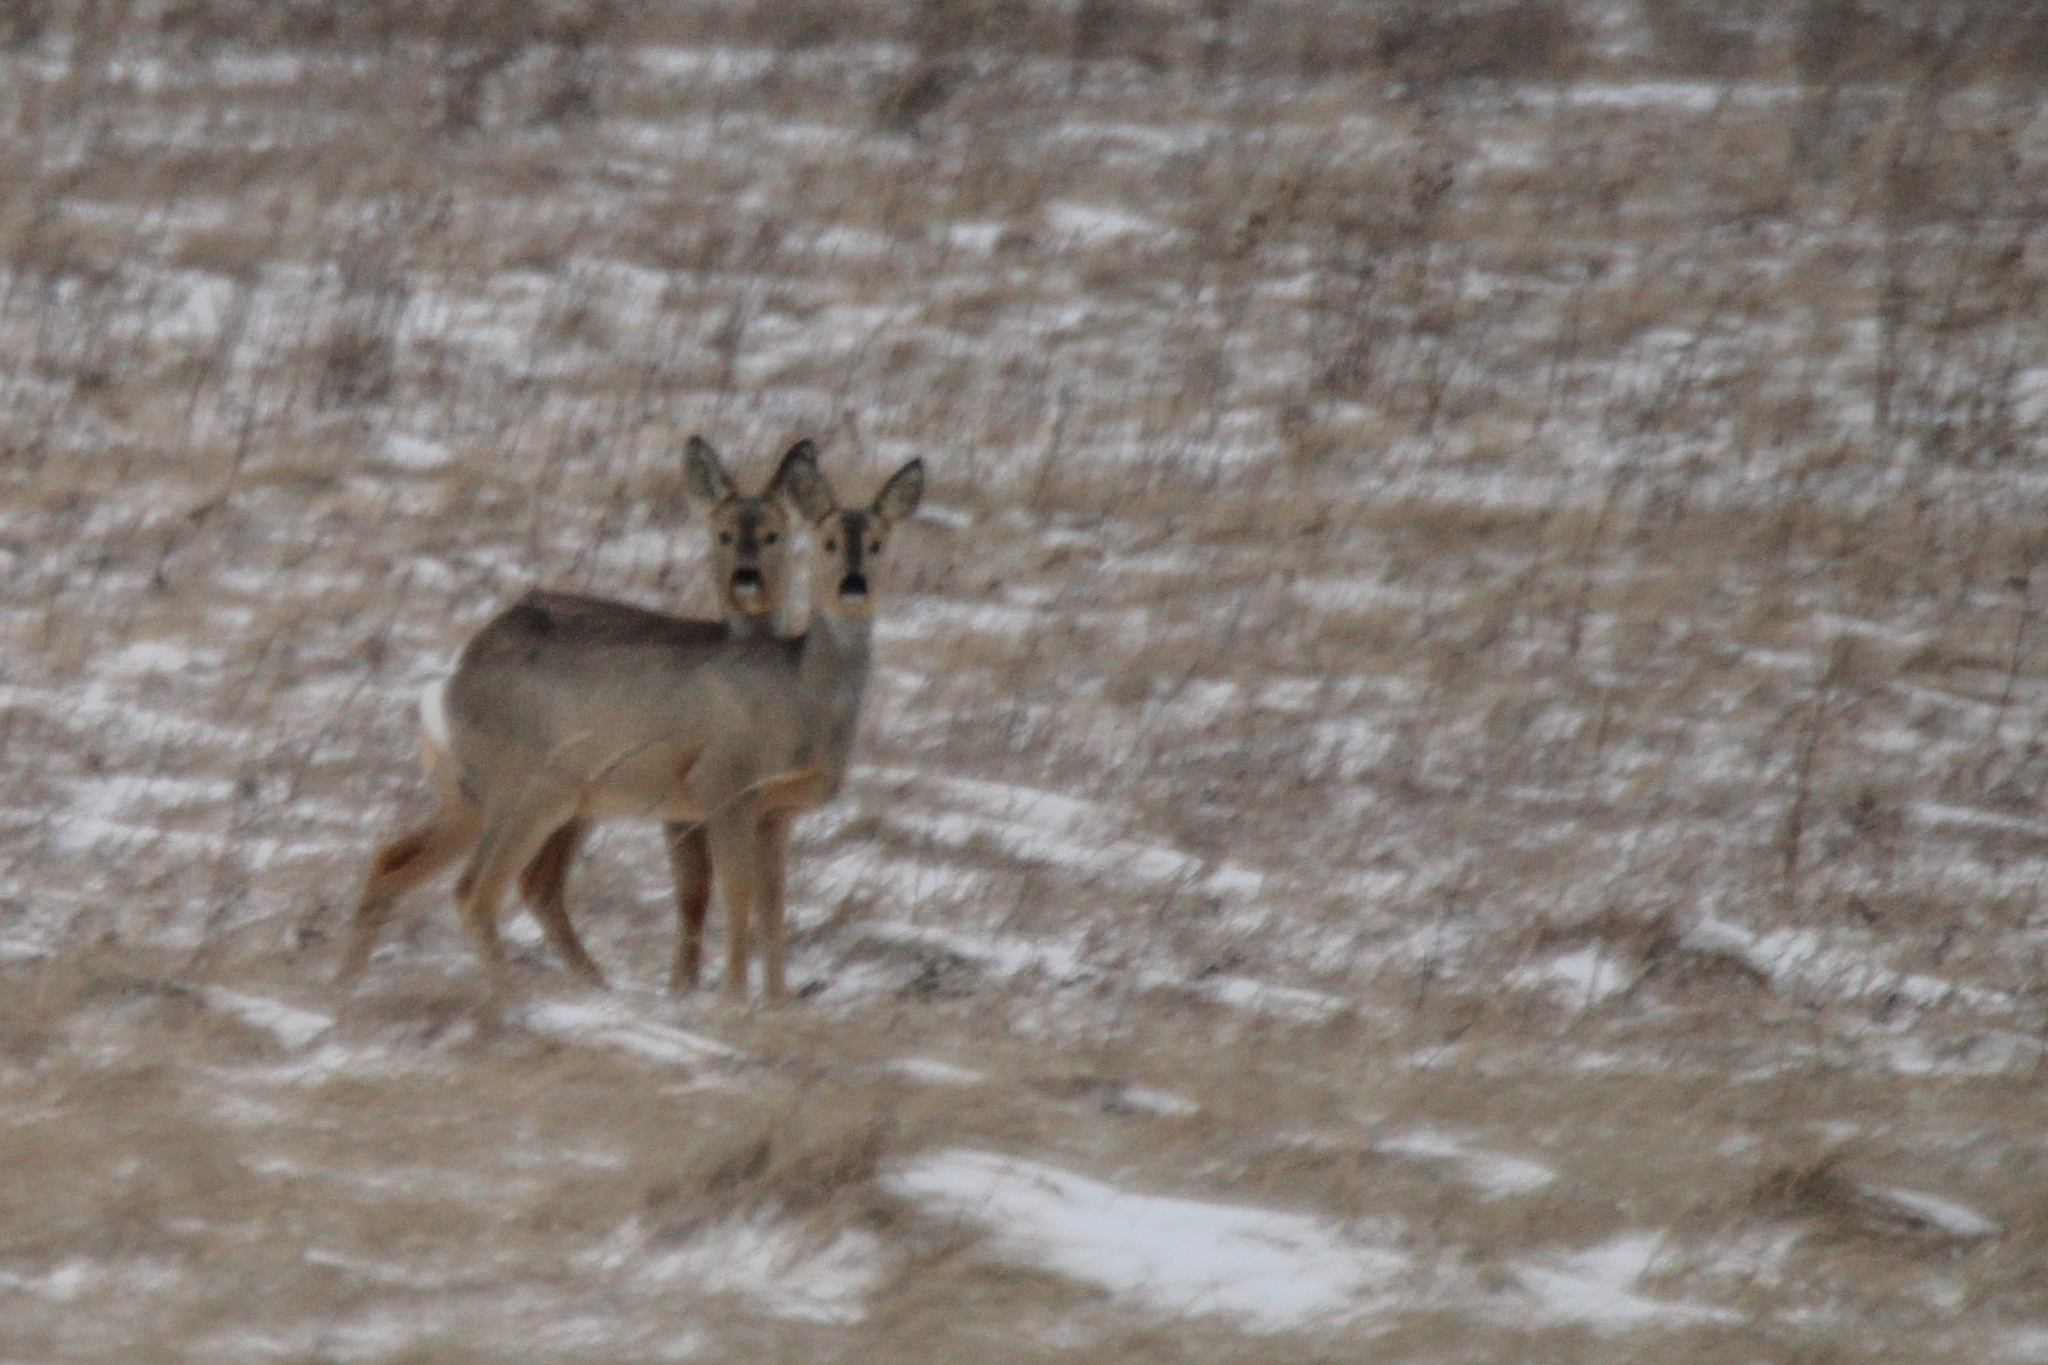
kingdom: Animalia
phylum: Chordata
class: Mammalia
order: Artiodactyla
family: Cervidae
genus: Capreolus
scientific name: Capreolus pygargus
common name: Siberian roe
